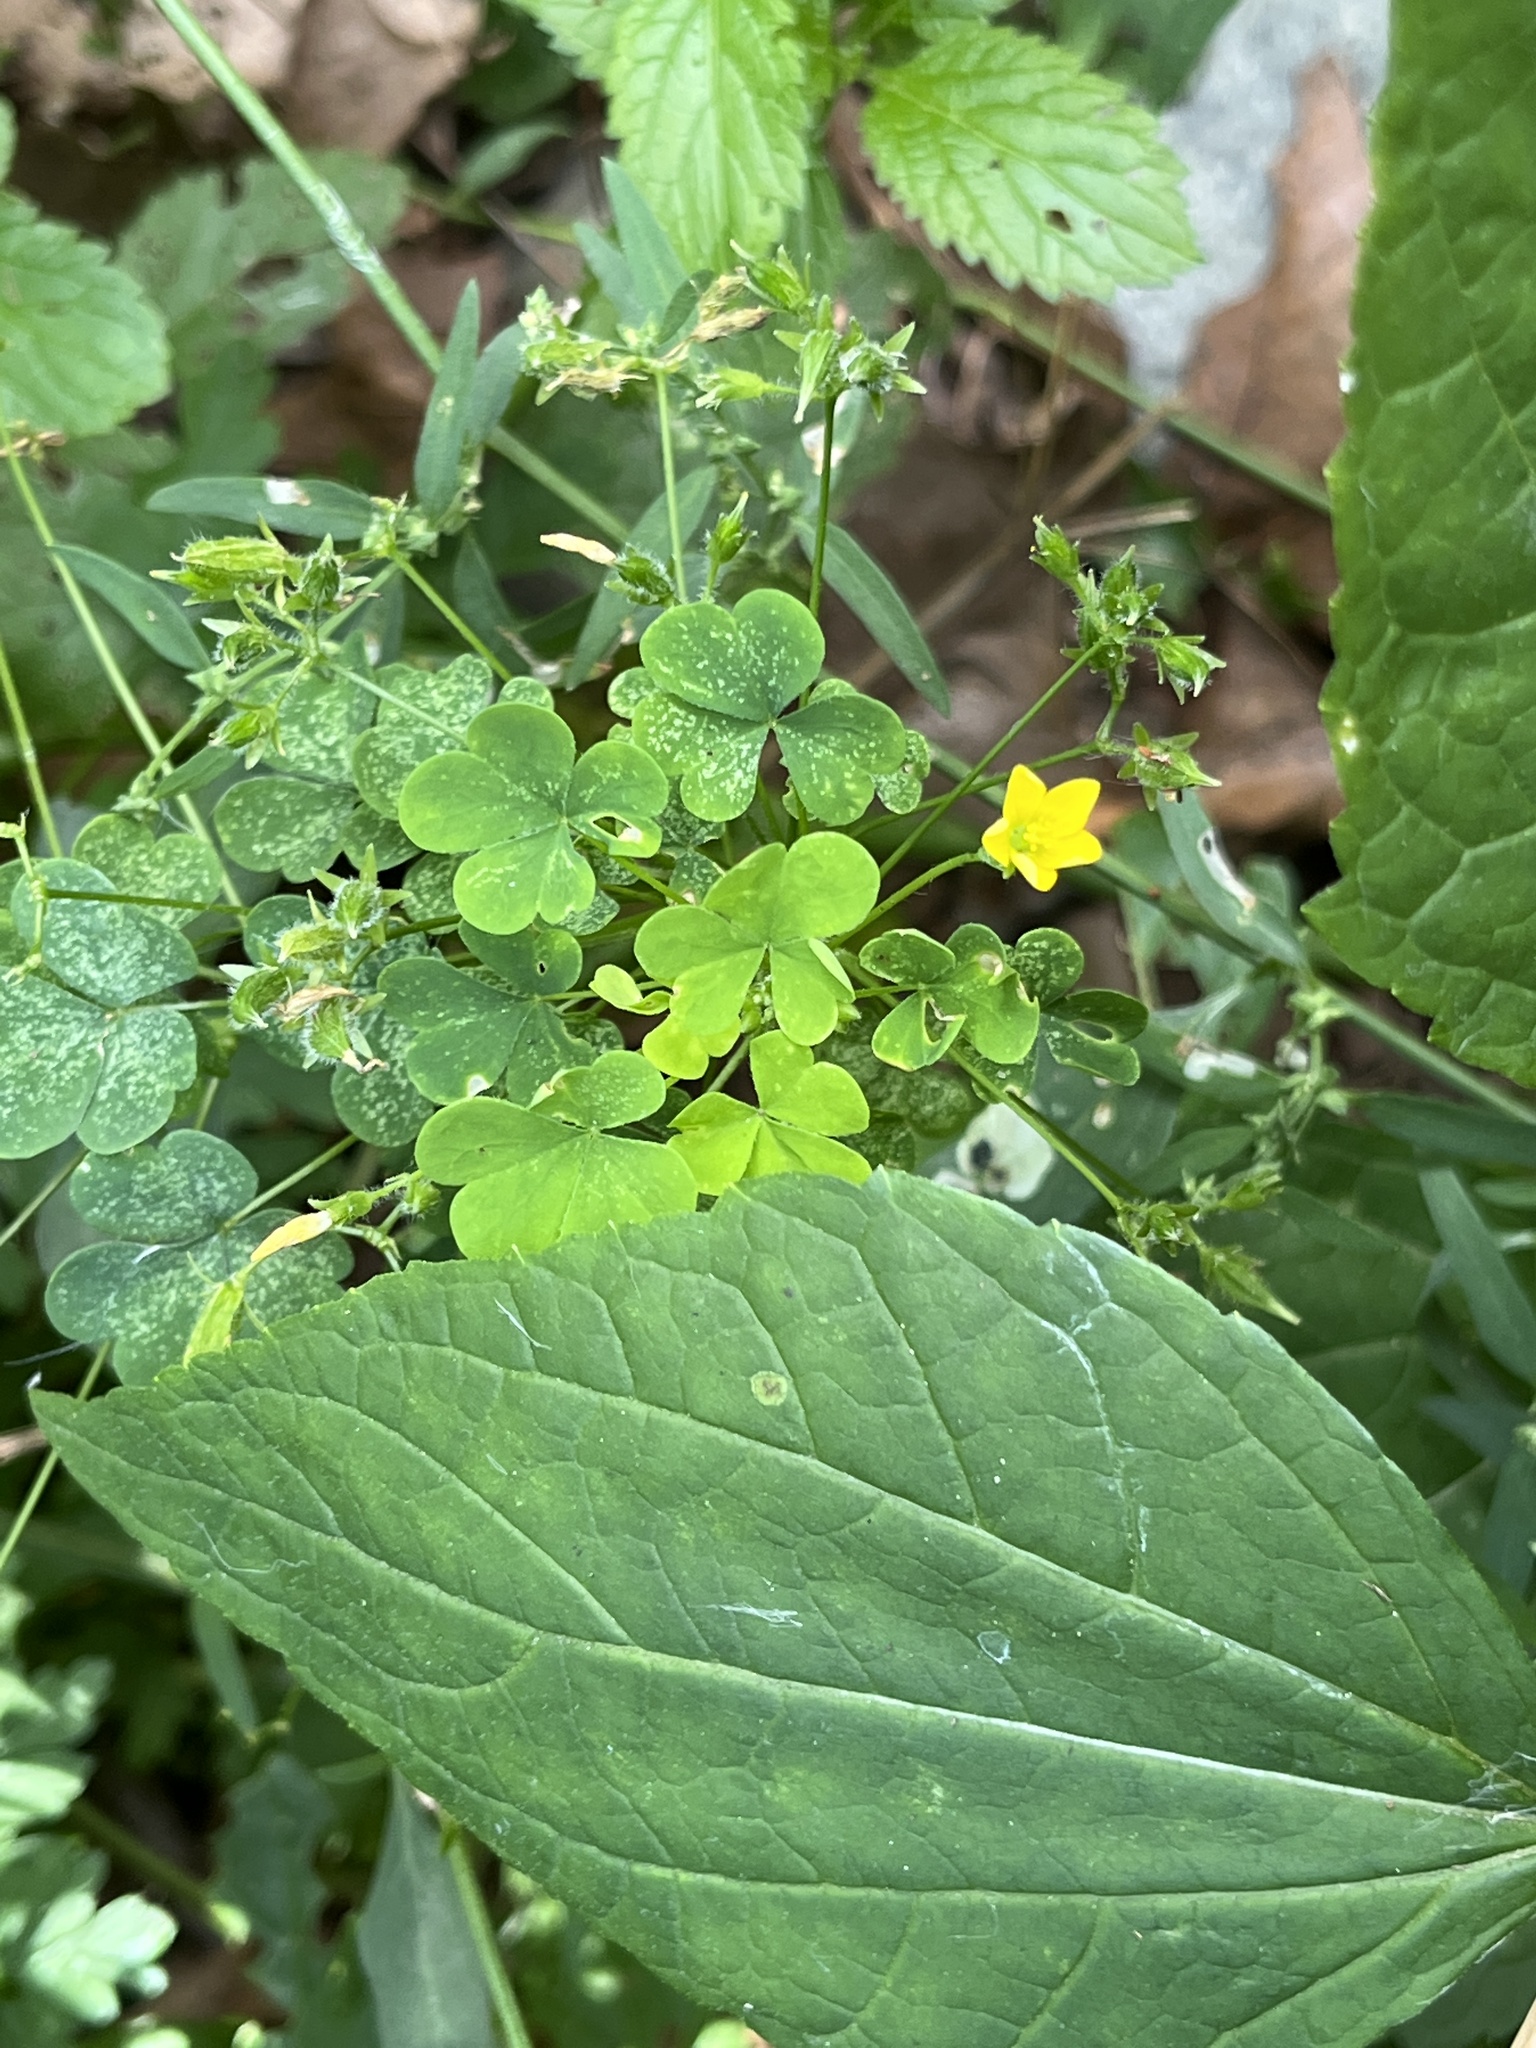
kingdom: Plantae
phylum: Tracheophyta
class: Magnoliopsida
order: Oxalidales
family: Oxalidaceae
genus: Oxalis
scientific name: Oxalis stricta
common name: Upright yellow-sorrel
